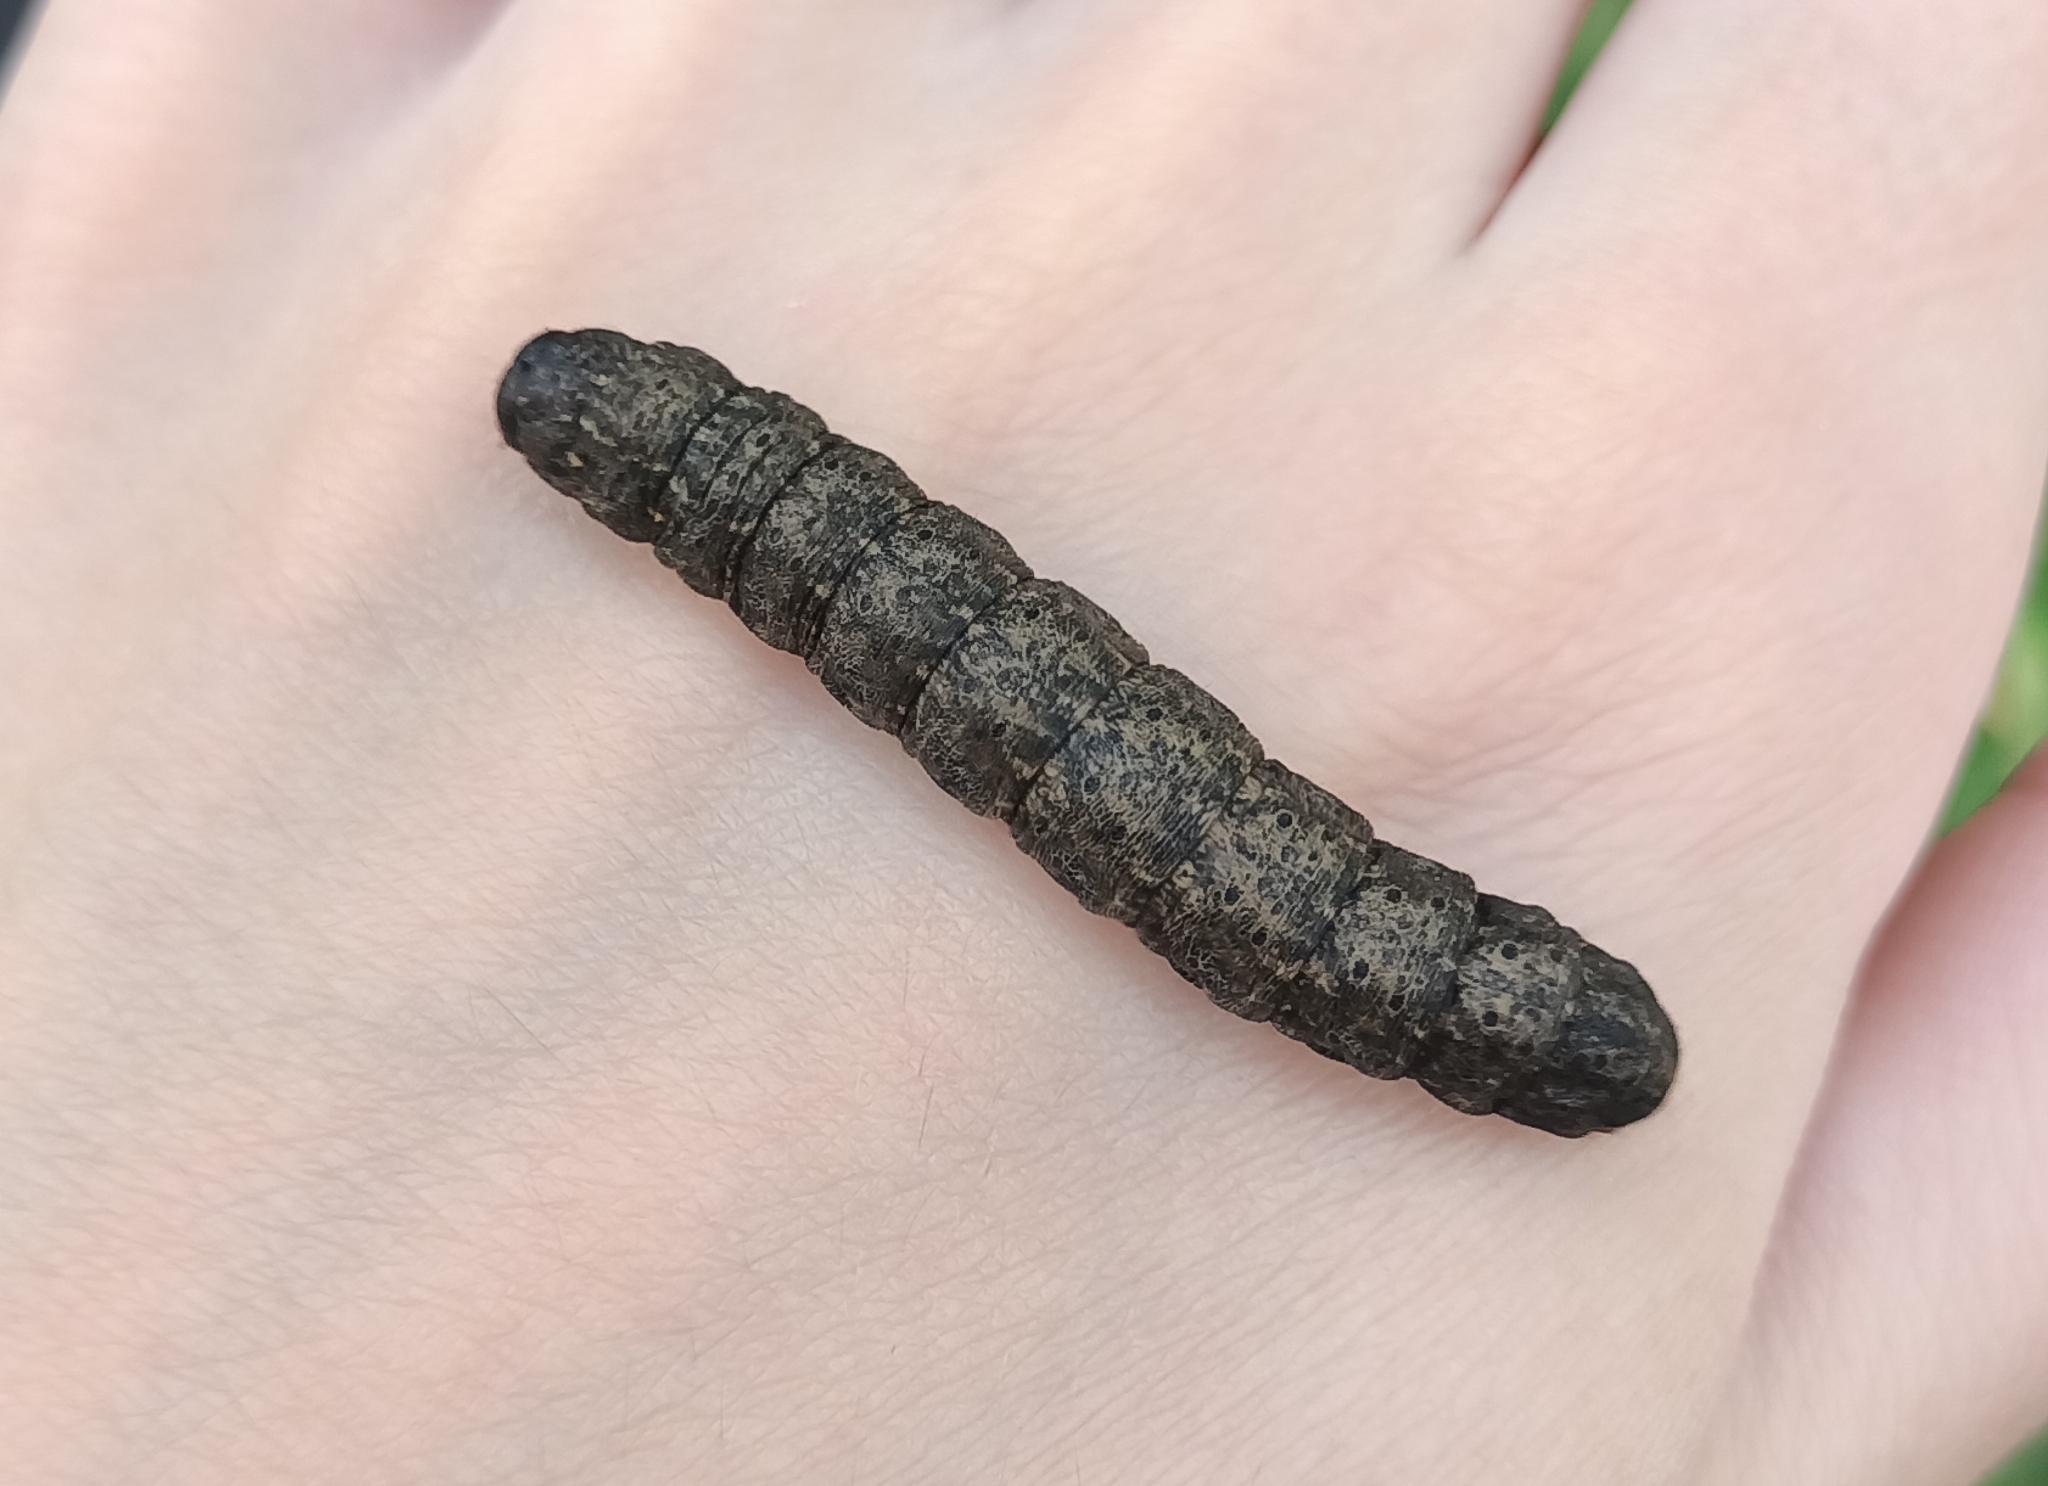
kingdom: Animalia
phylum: Arthropoda
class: Insecta
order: Lepidoptera
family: Noctuidae
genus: Cucullia
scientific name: Cucullia umbratica
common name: Shark
